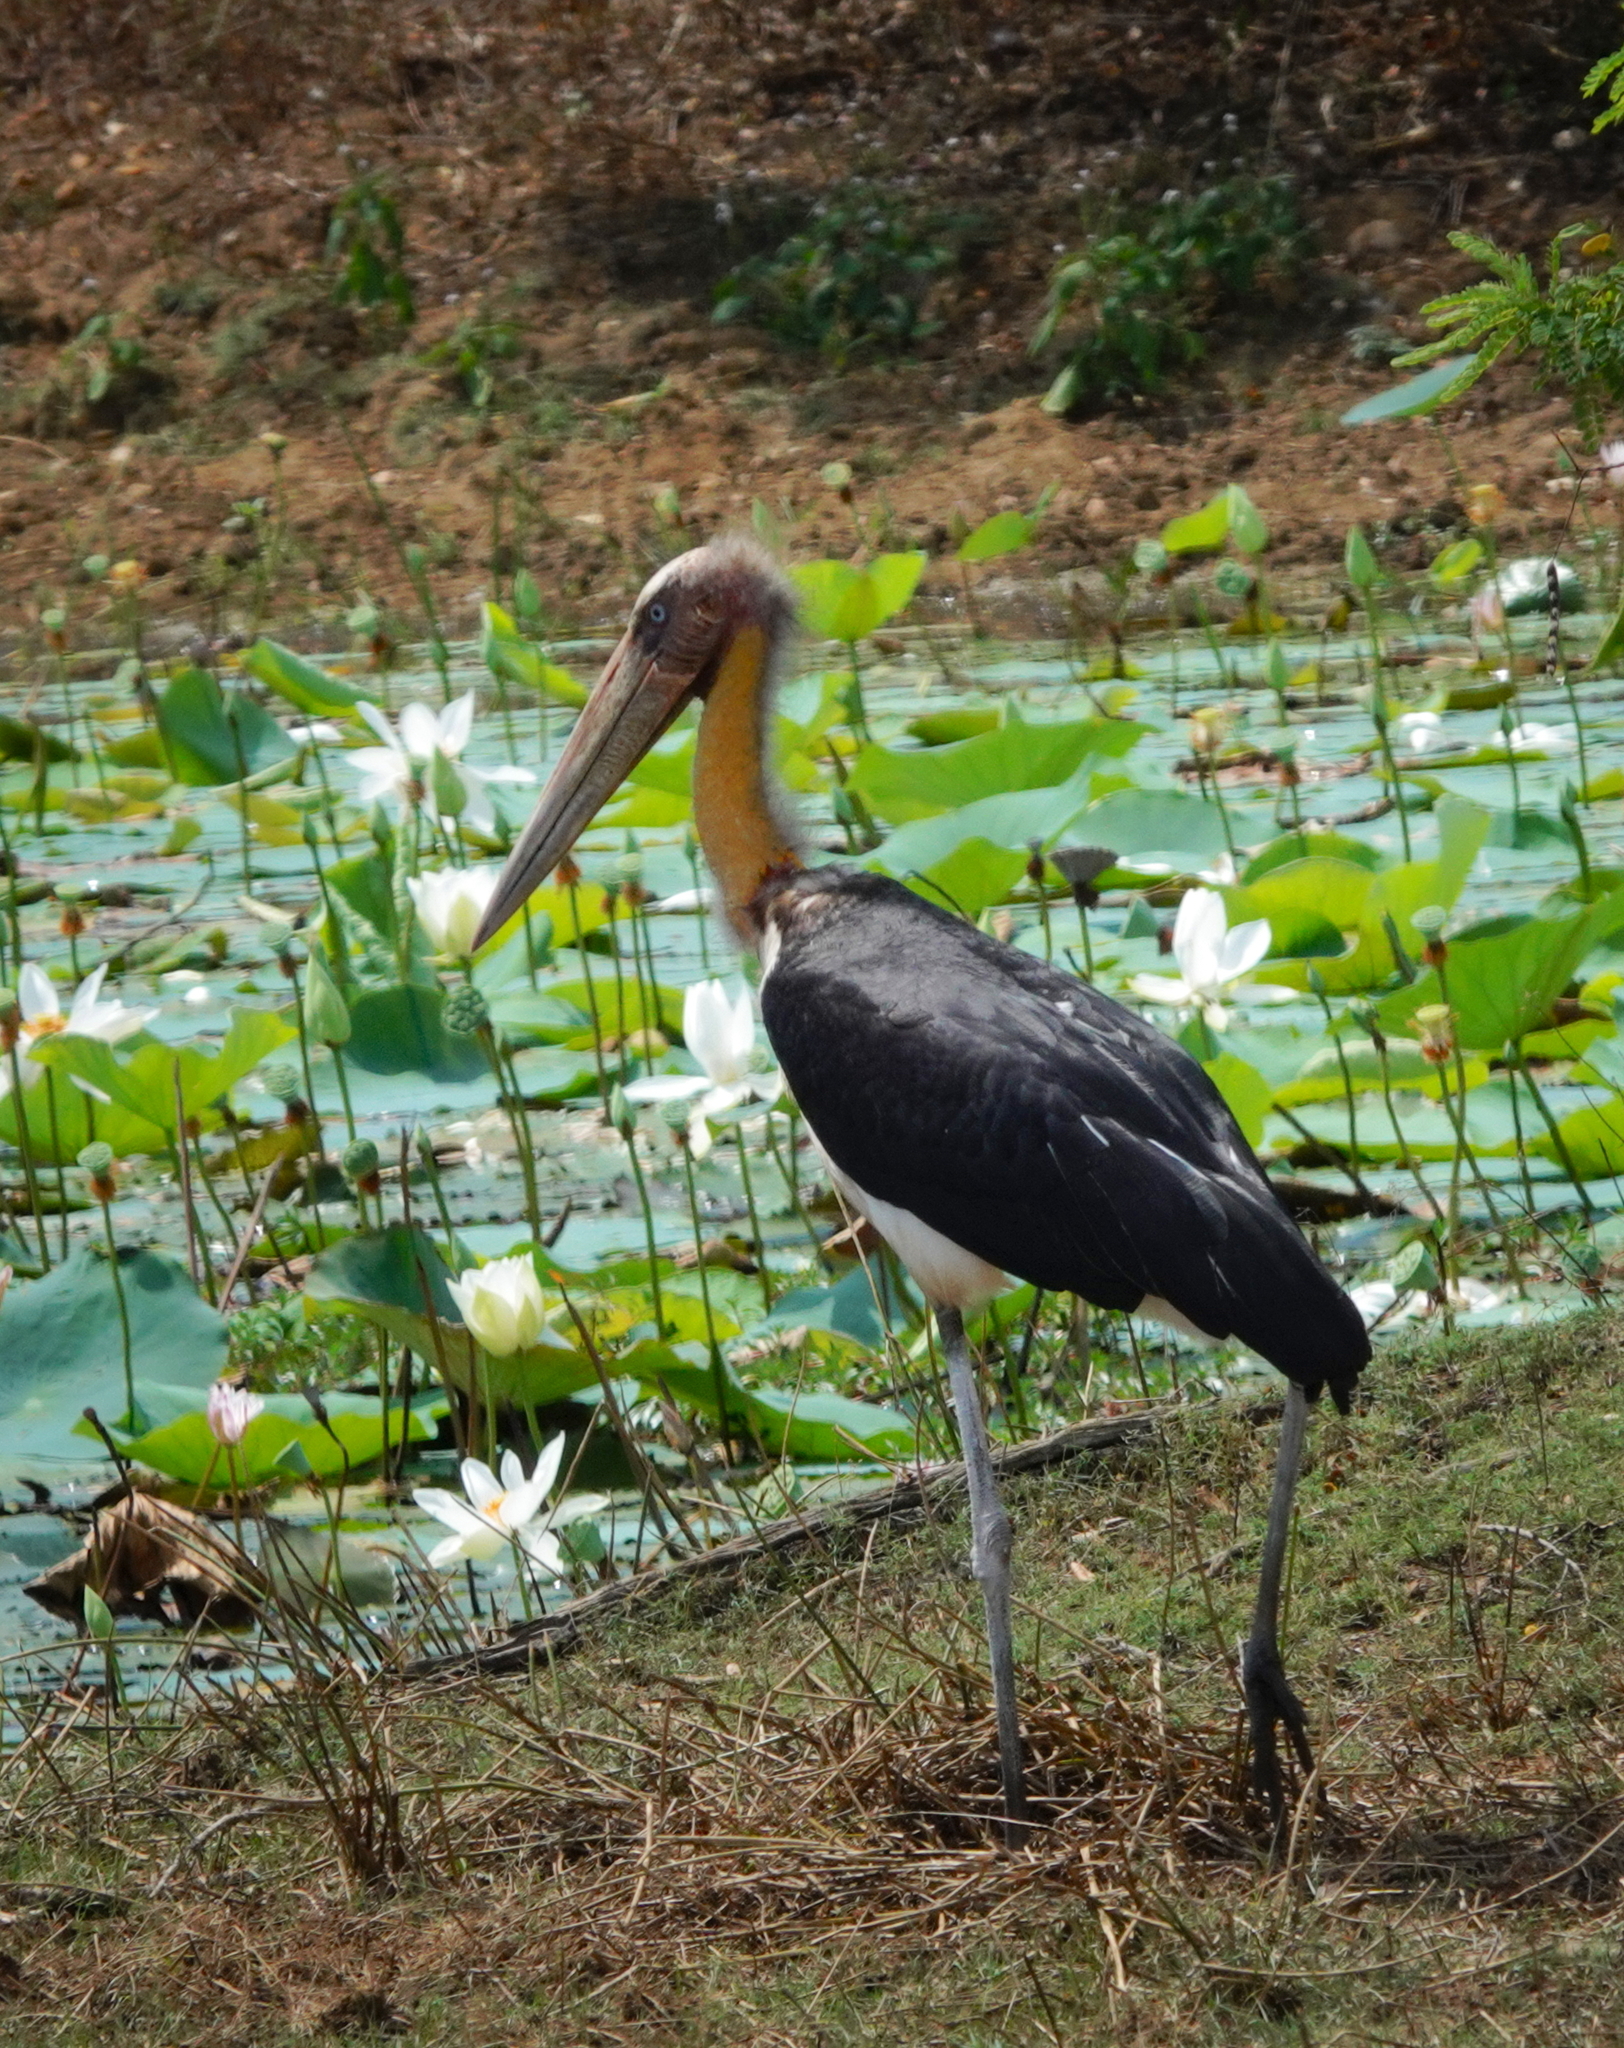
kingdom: Animalia
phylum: Chordata
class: Aves
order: Ciconiiformes
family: Ciconiidae
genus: Leptoptilos
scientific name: Leptoptilos javanicus
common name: Lesser adjutant
